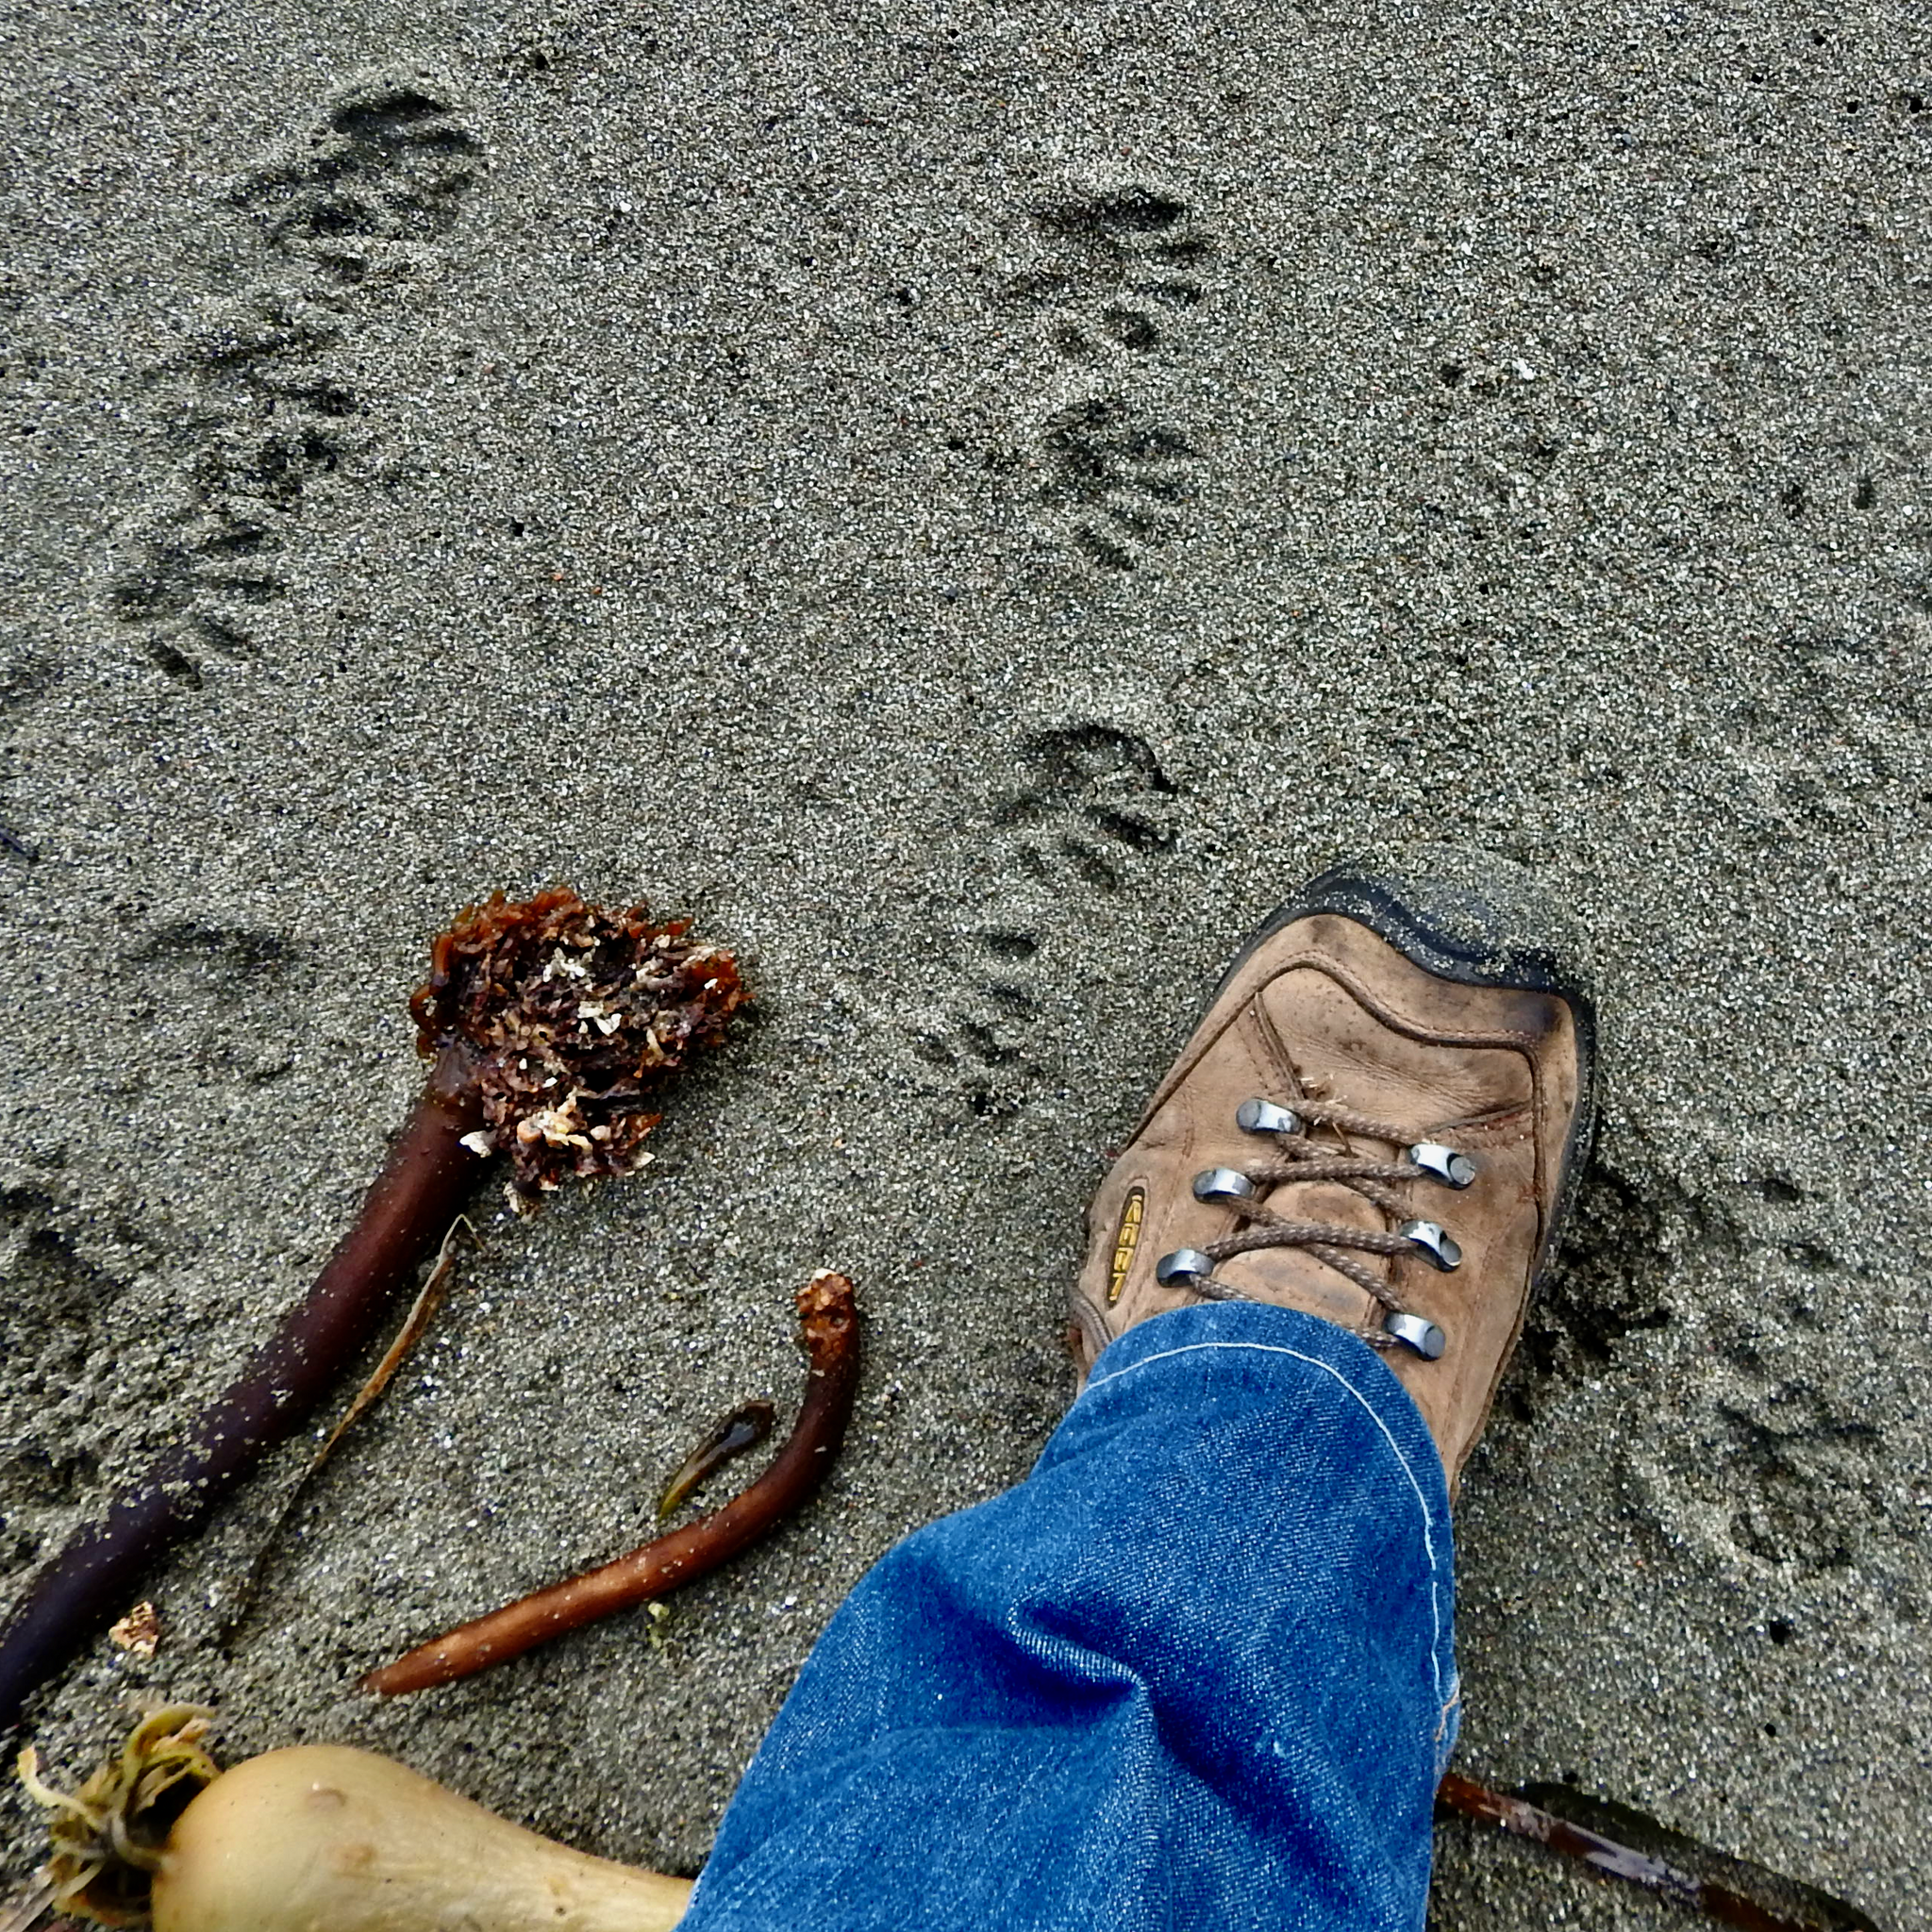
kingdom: Animalia
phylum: Chordata
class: Mammalia
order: Carnivora
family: Procyonidae
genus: Procyon
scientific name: Procyon lotor
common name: Raccoon
